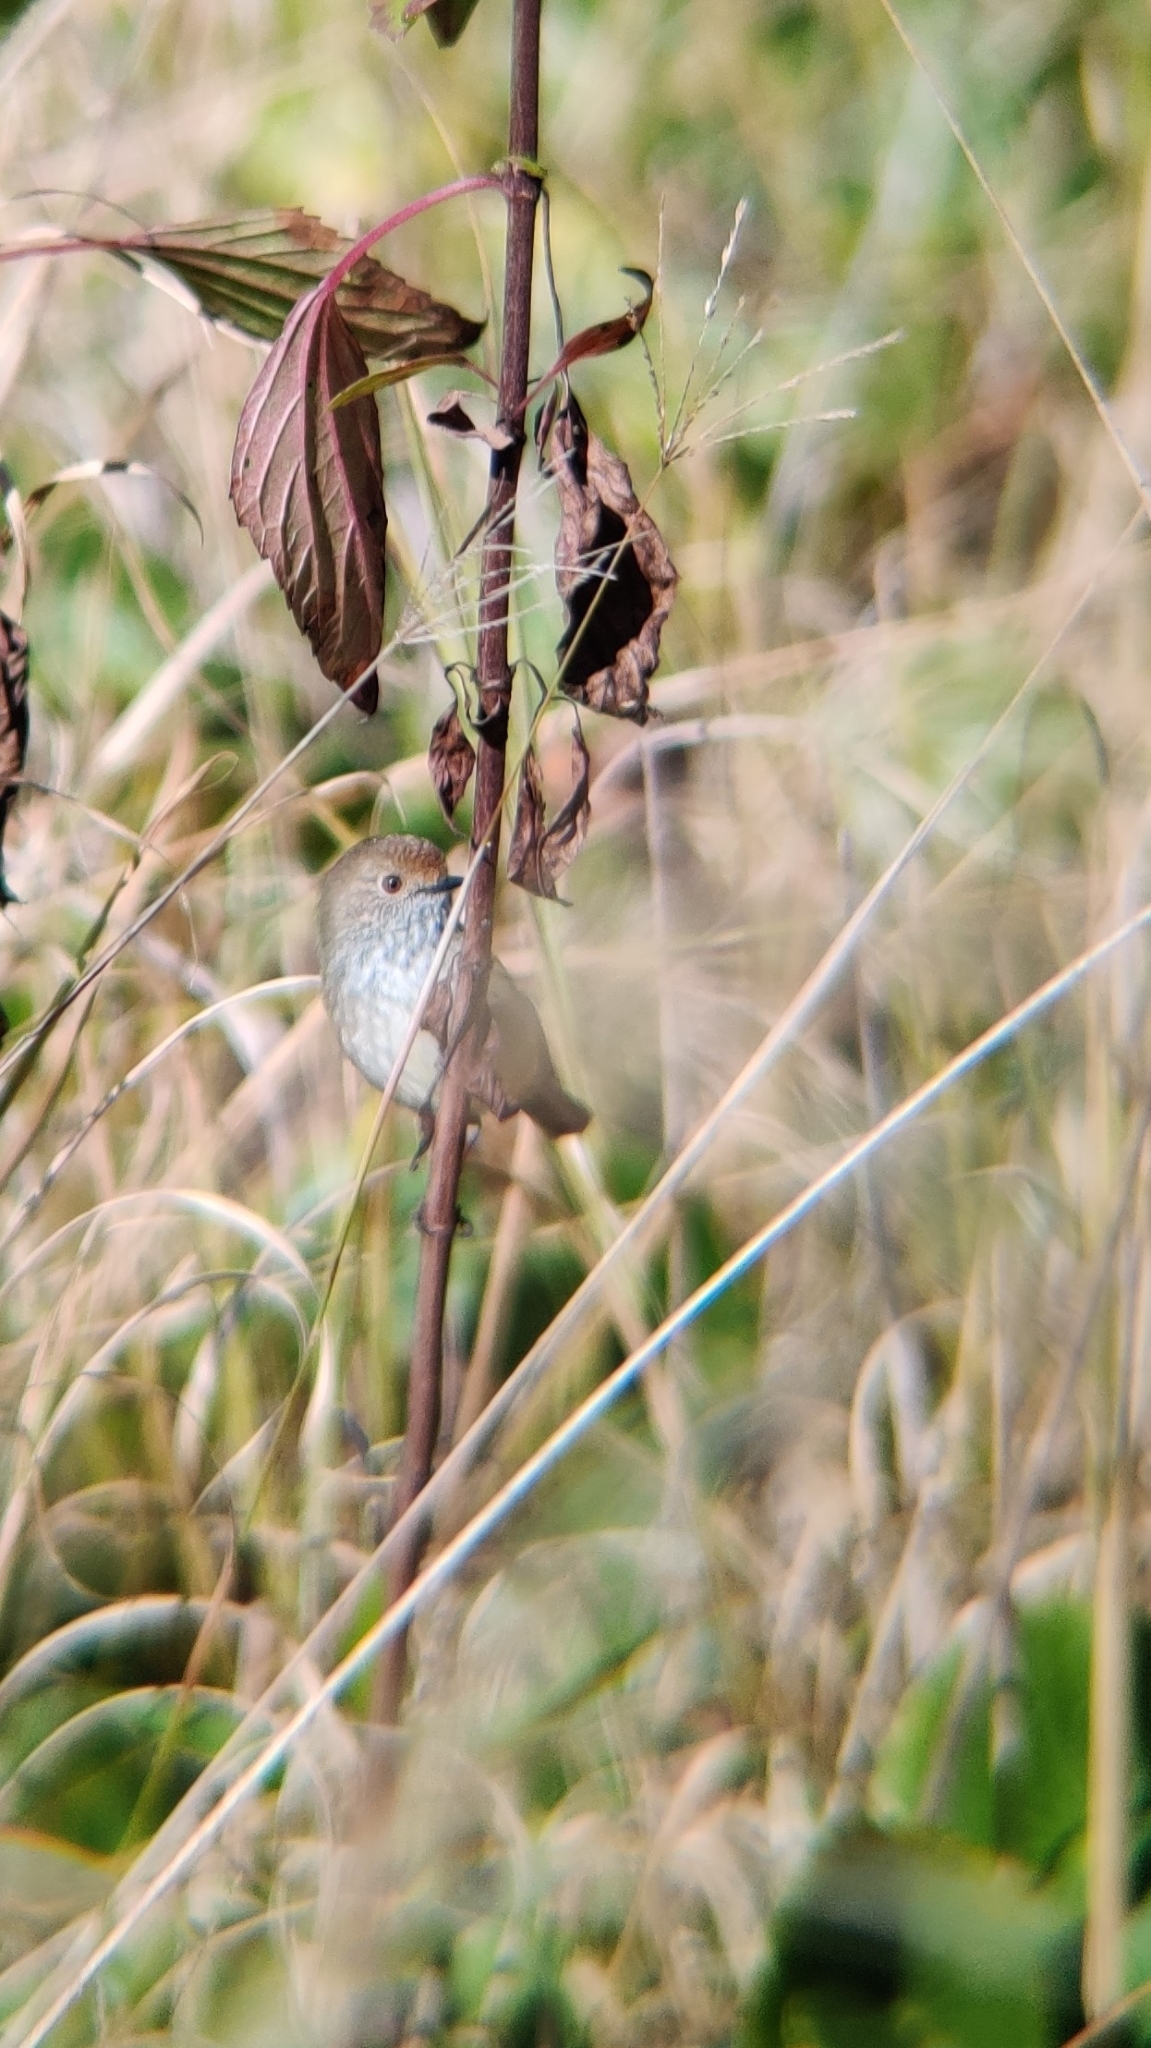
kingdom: Animalia
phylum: Chordata
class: Aves
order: Passeriformes
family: Acanthizidae
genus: Acanthiza
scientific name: Acanthiza pusilla
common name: Brown thornbill
